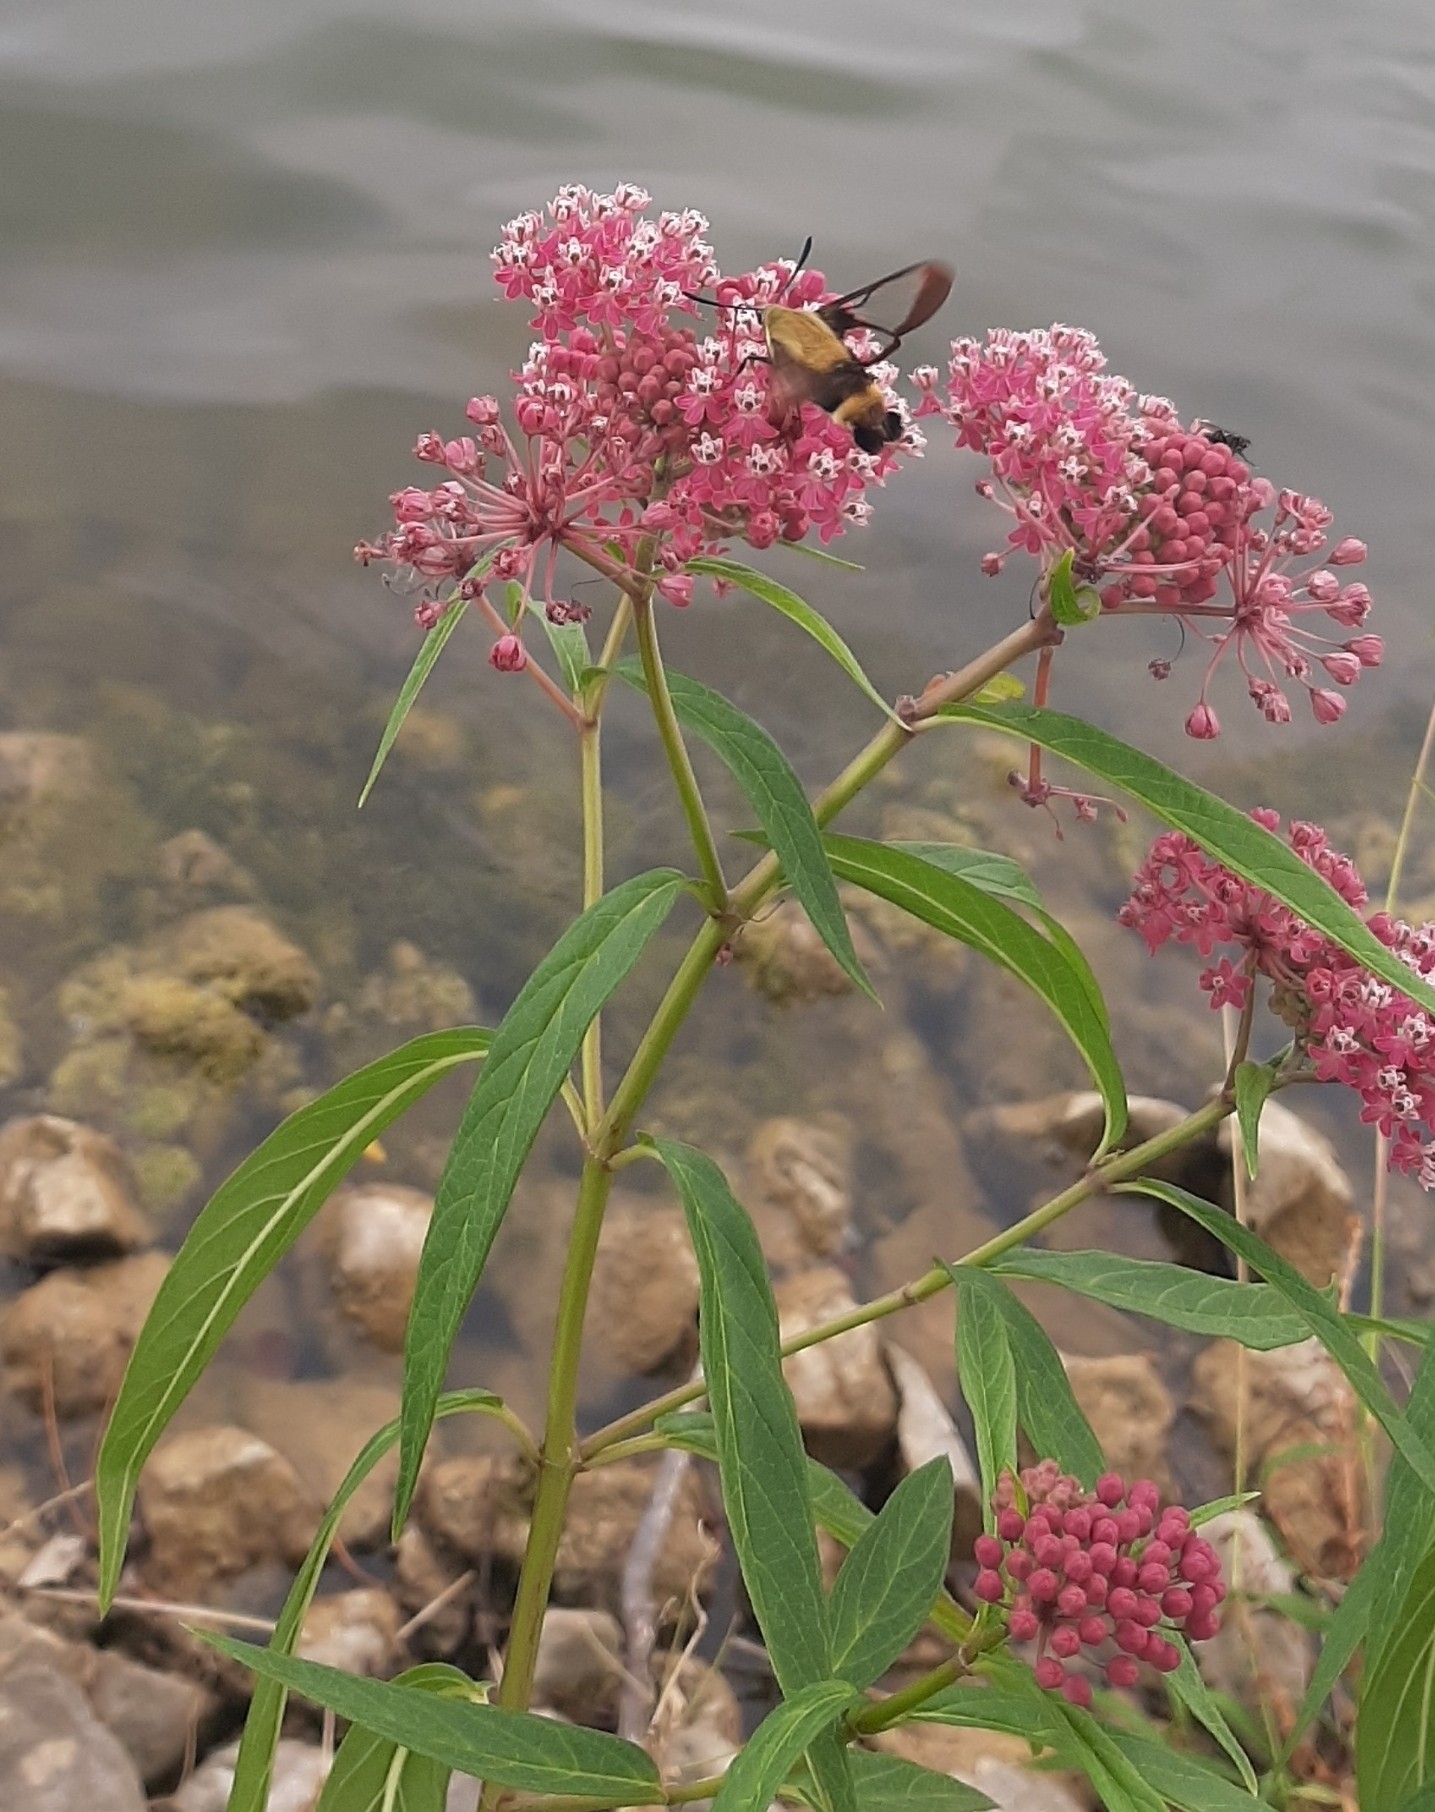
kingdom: Plantae
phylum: Tracheophyta
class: Magnoliopsida
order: Gentianales
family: Apocynaceae
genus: Asclepias
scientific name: Asclepias incarnata
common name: Swamp milkweed
